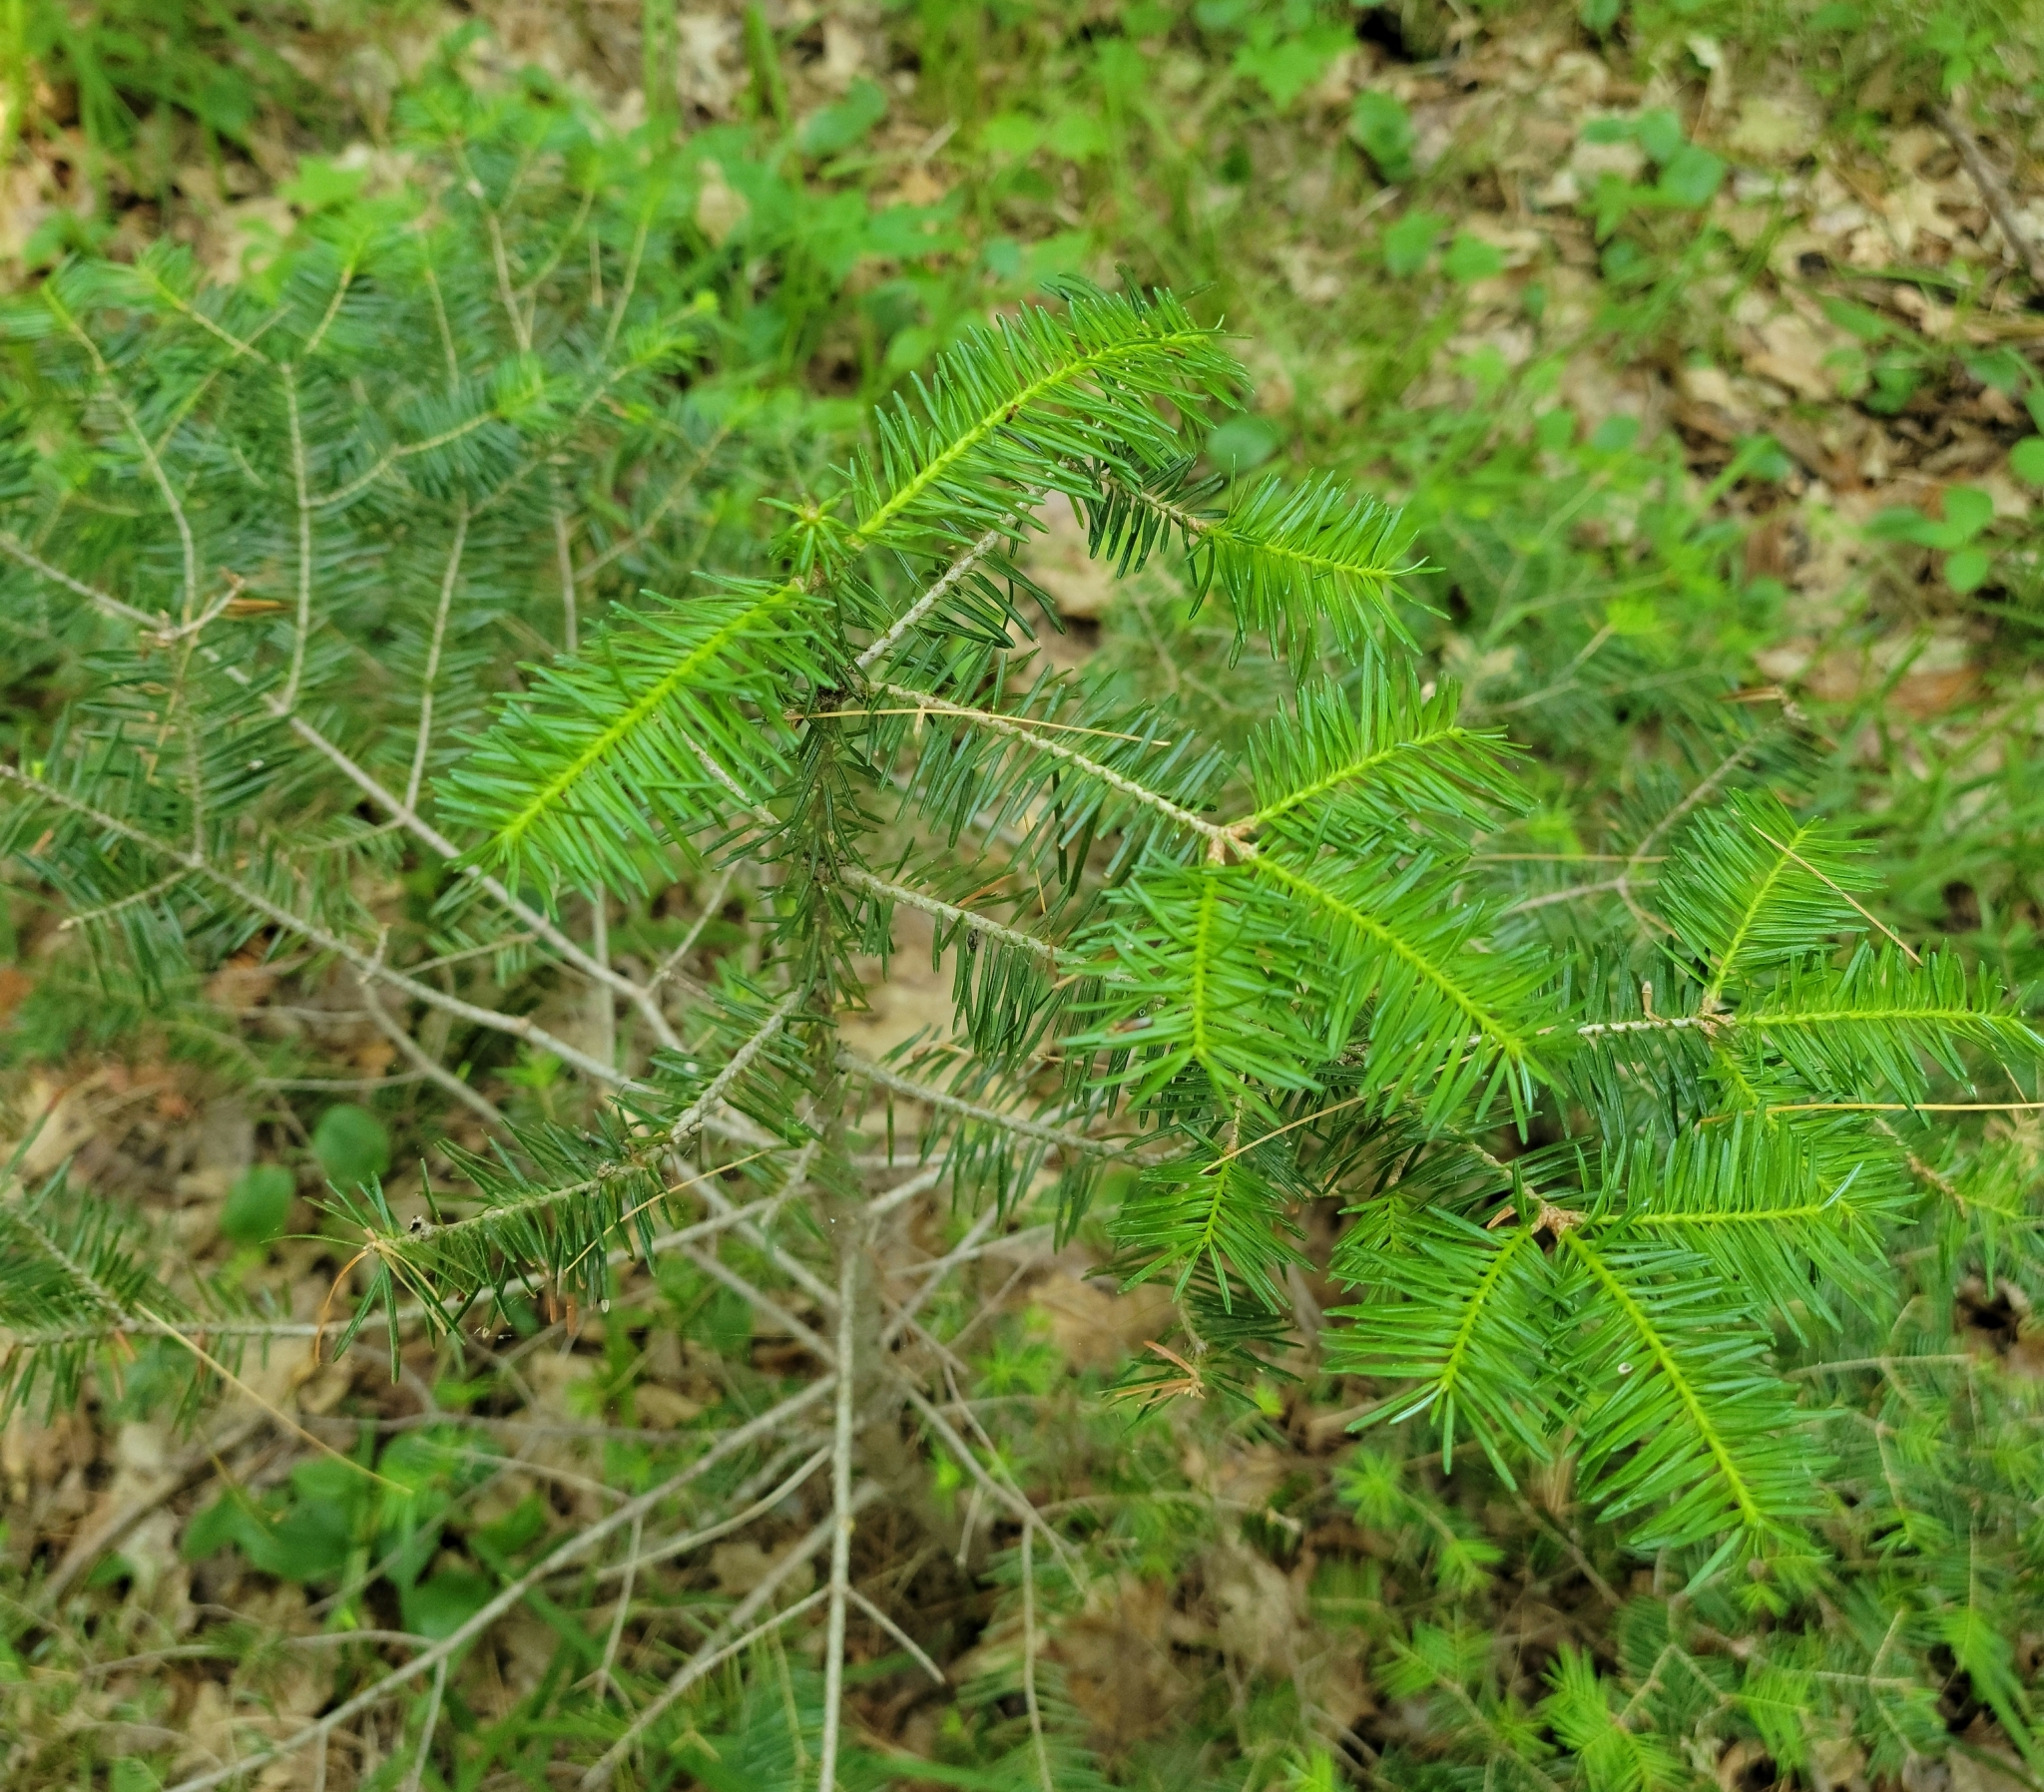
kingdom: Plantae
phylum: Tracheophyta
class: Pinopsida
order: Pinales
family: Pinaceae
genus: Abies
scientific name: Abies balsamea
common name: Balsam fir
